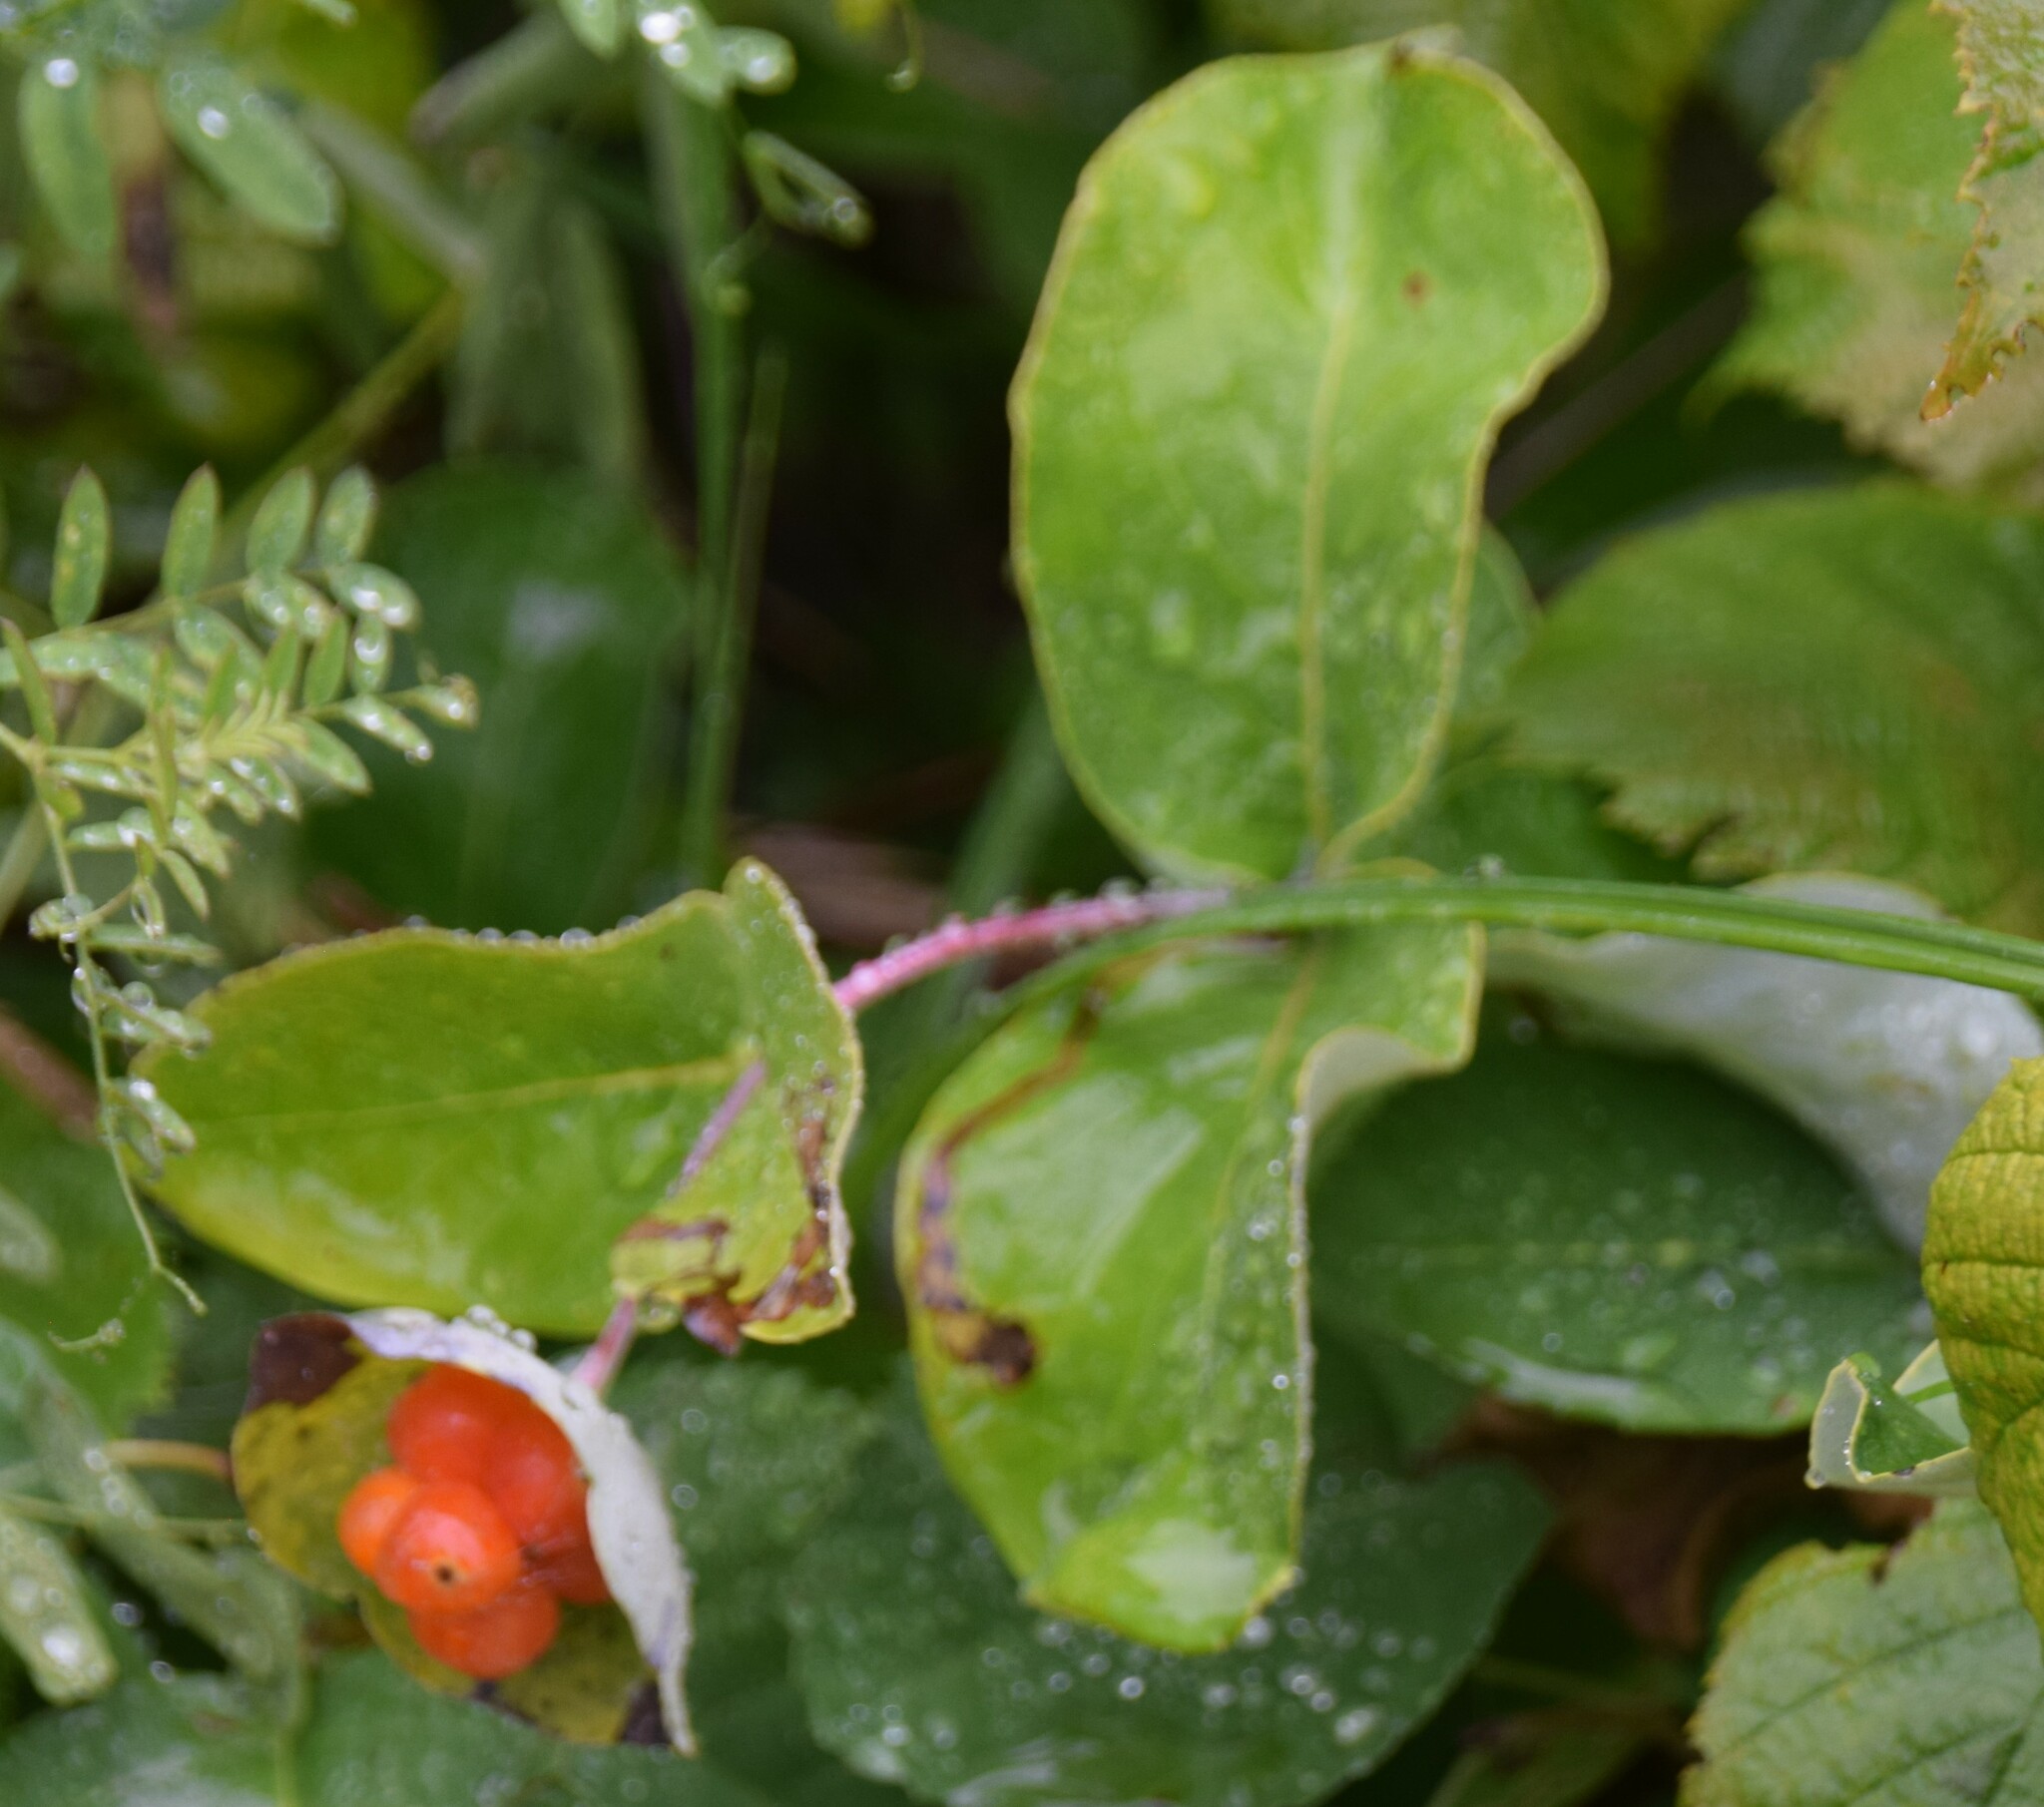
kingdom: Plantae
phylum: Tracheophyta
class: Magnoliopsida
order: Dipsacales
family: Caprifoliaceae
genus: Lonicera
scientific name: Lonicera dioica
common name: Limber honeysuckle
